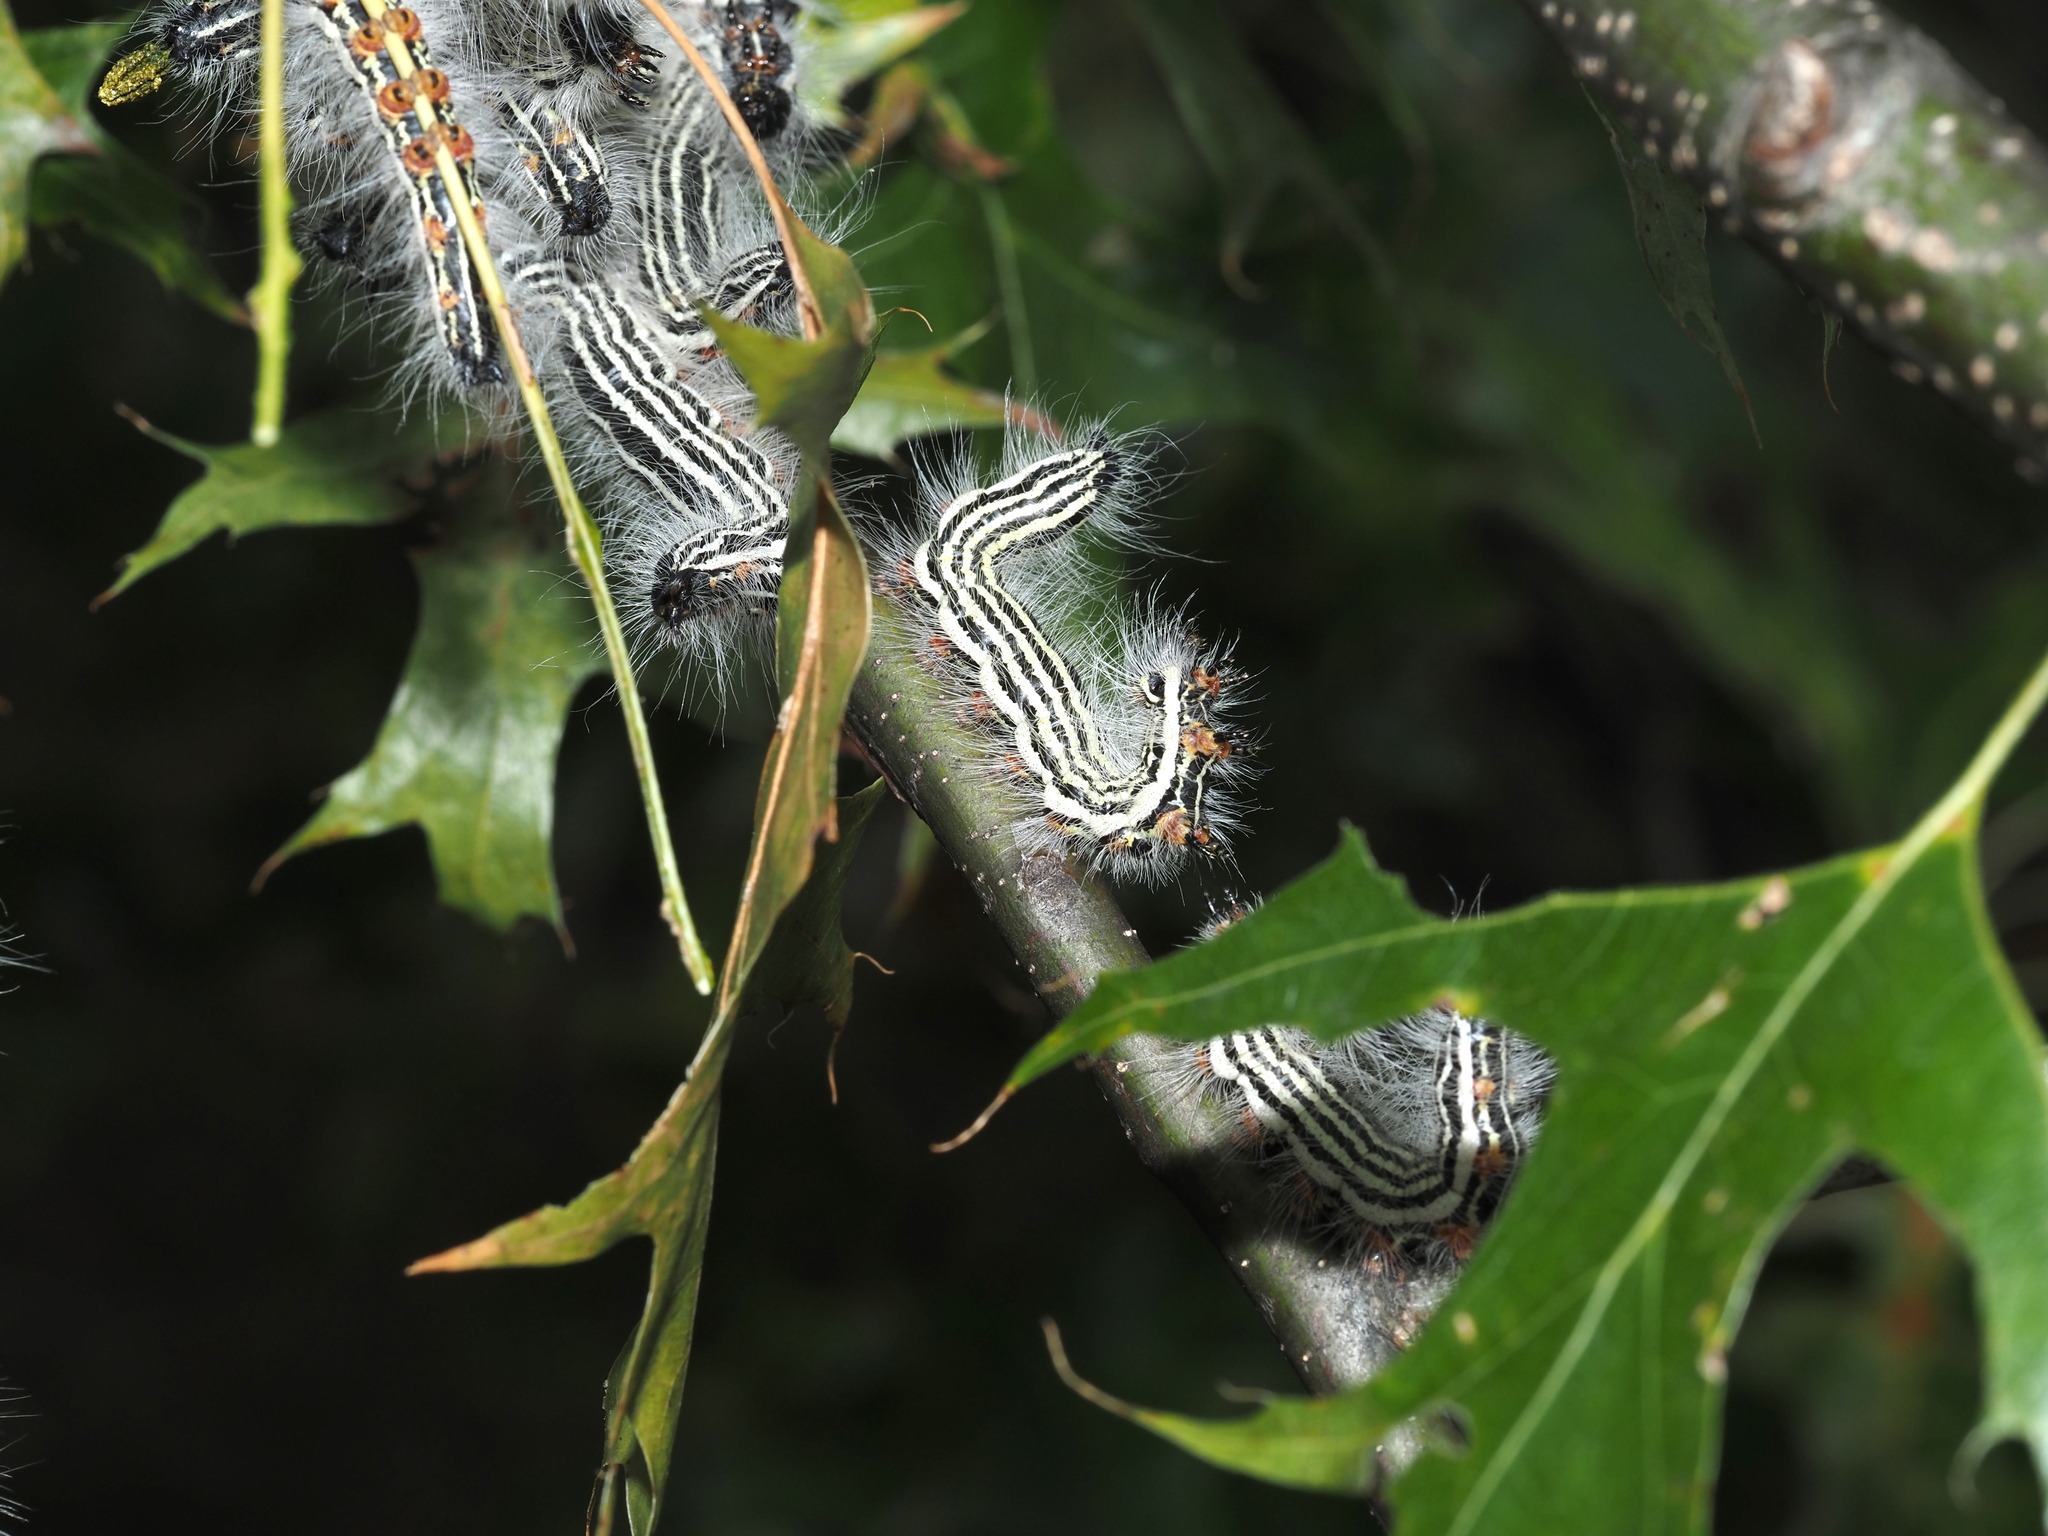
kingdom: Animalia
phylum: Arthropoda
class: Insecta
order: Lepidoptera
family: Notodontidae
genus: Datana
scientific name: Datana contracta
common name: Contracted datana
